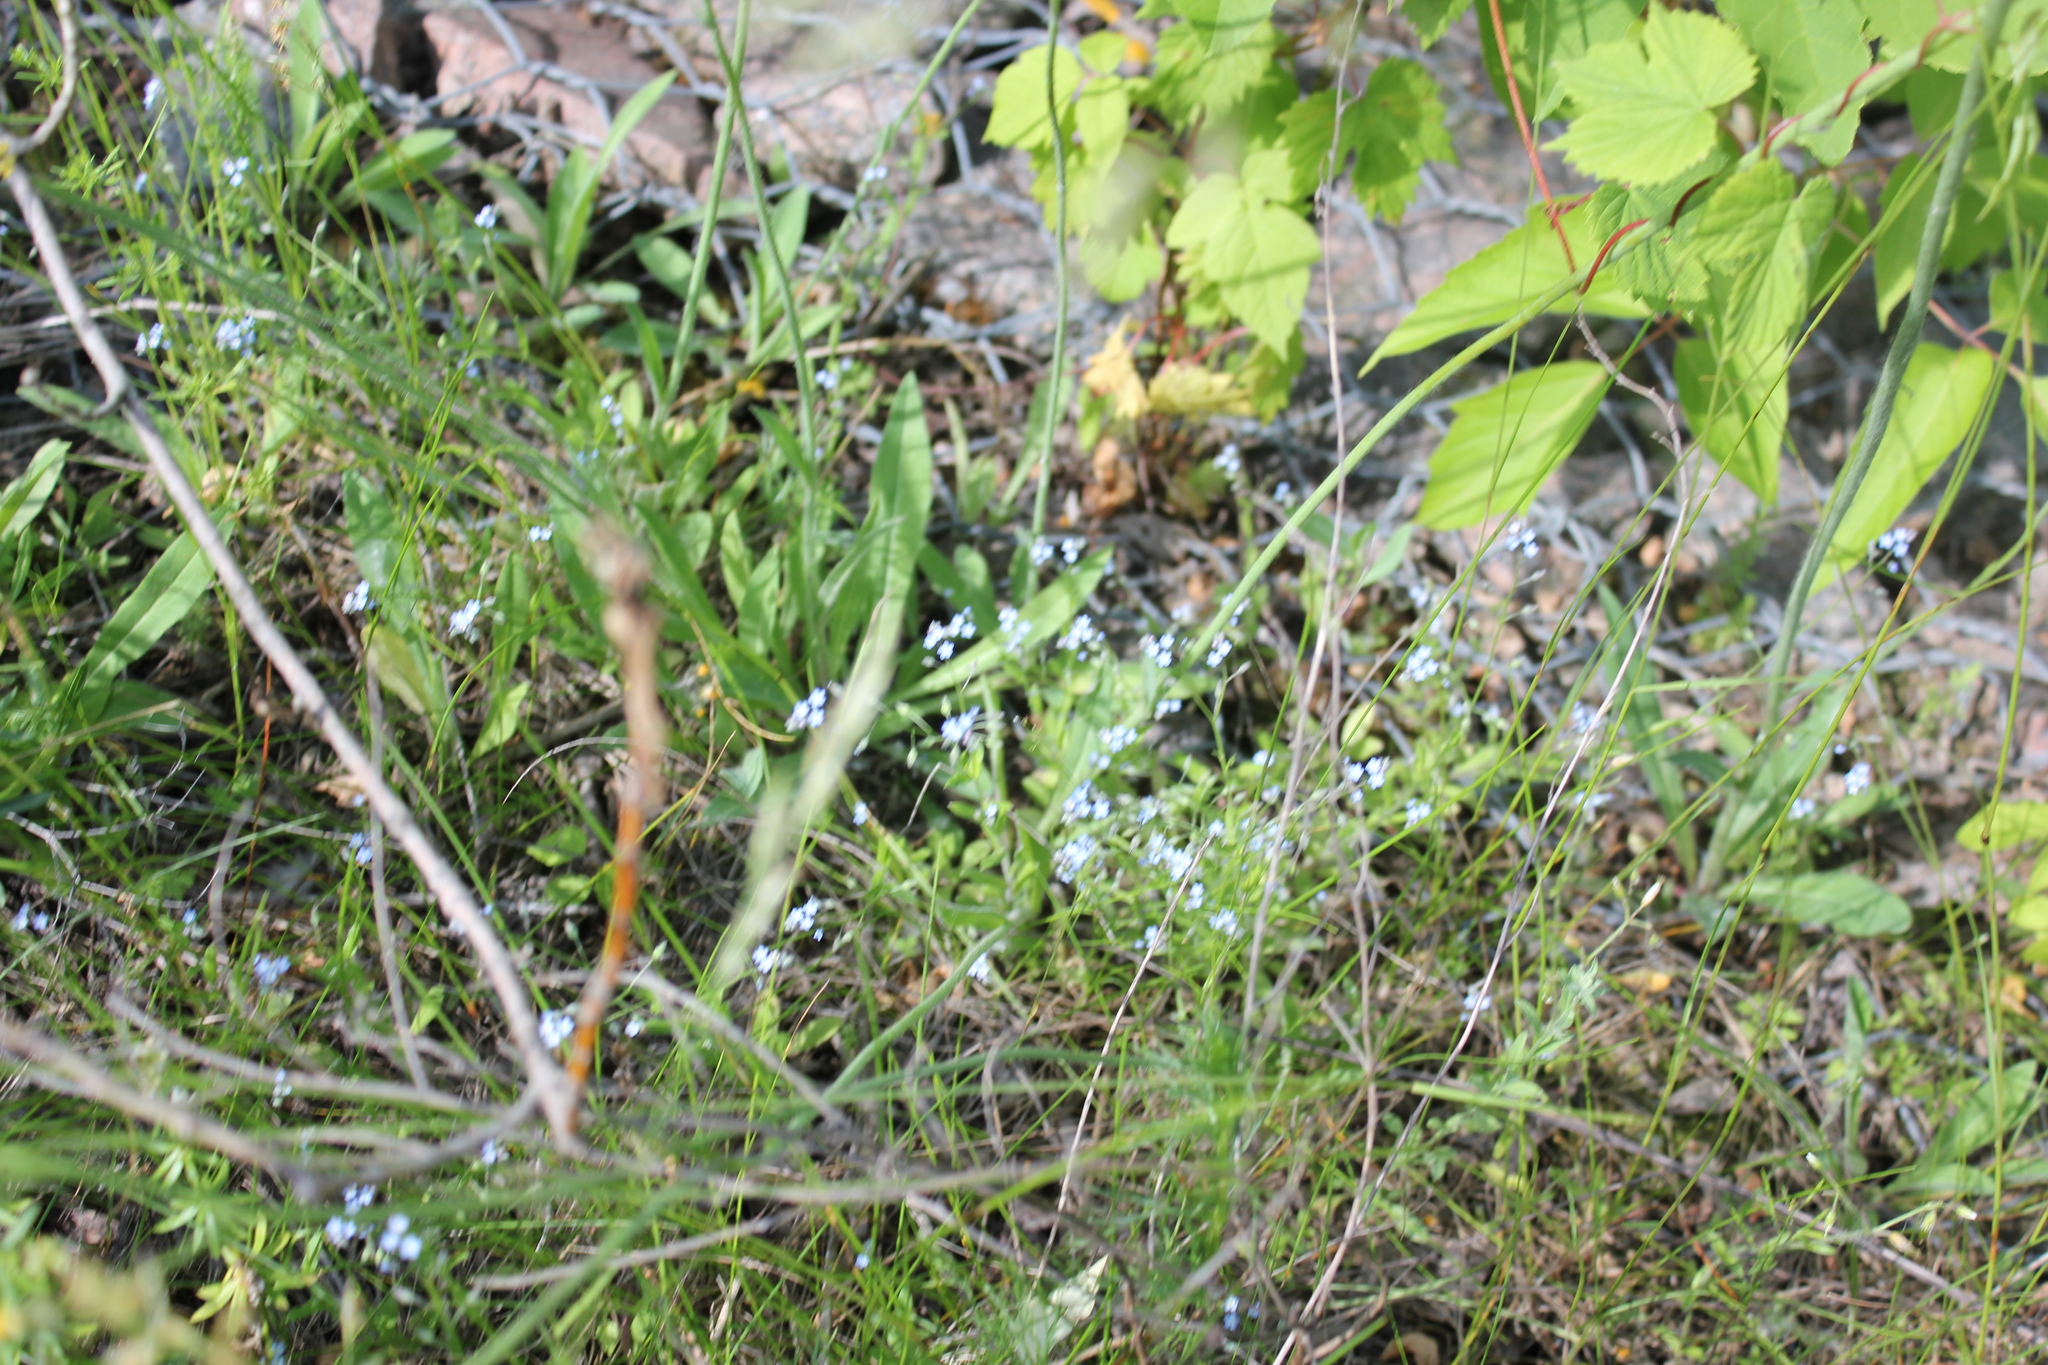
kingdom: Plantae
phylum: Tracheophyta
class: Magnoliopsida
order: Boraginales
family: Boraginaceae
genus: Myosotis
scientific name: Myosotis arvensis
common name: Field forget-me-not
